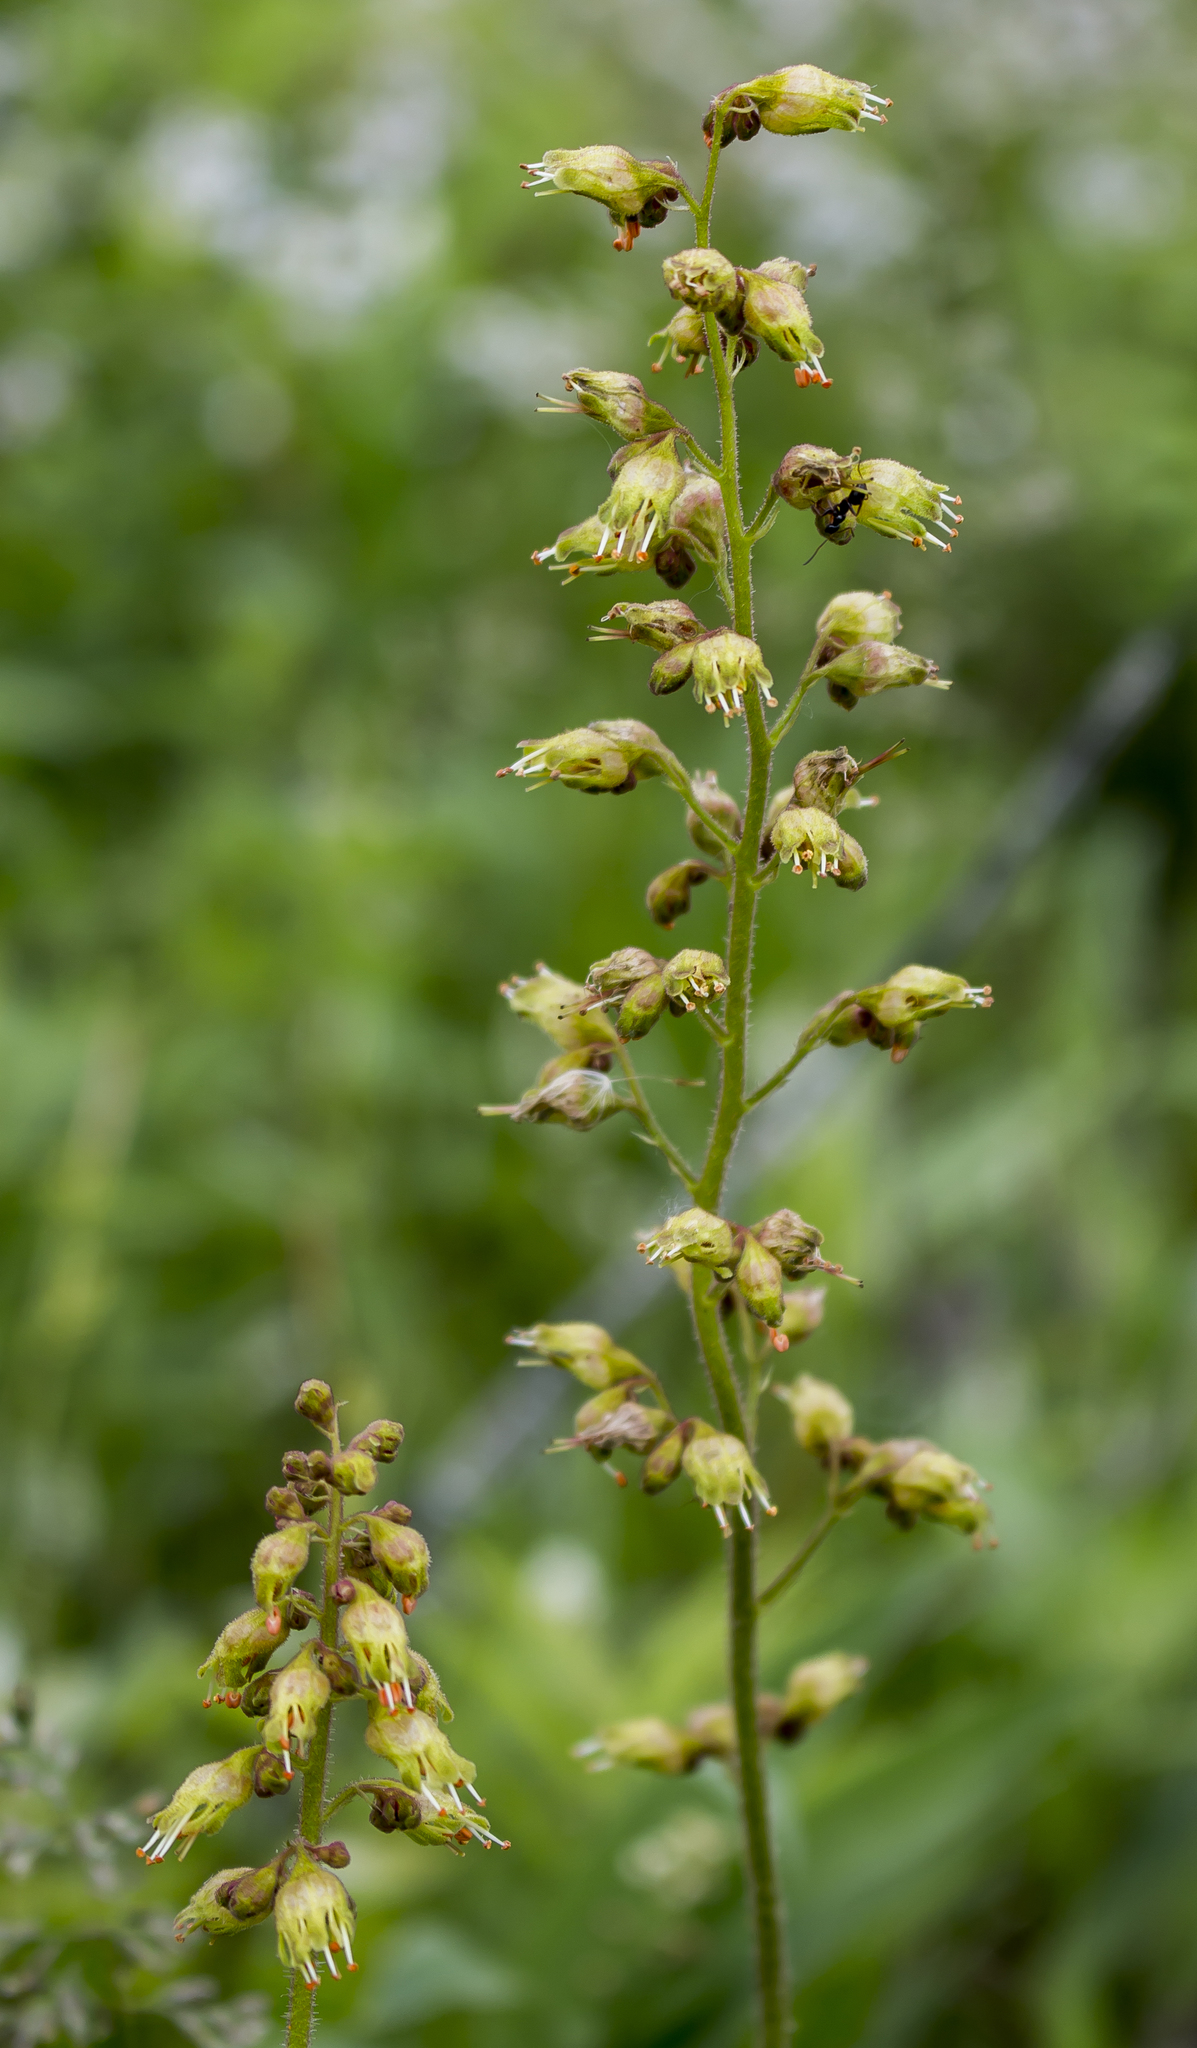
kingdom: Plantae
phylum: Tracheophyta
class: Magnoliopsida
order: Saxifragales
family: Saxifragaceae
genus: Heuchera
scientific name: Heuchera richardsonii
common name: Richardson's alumroot
